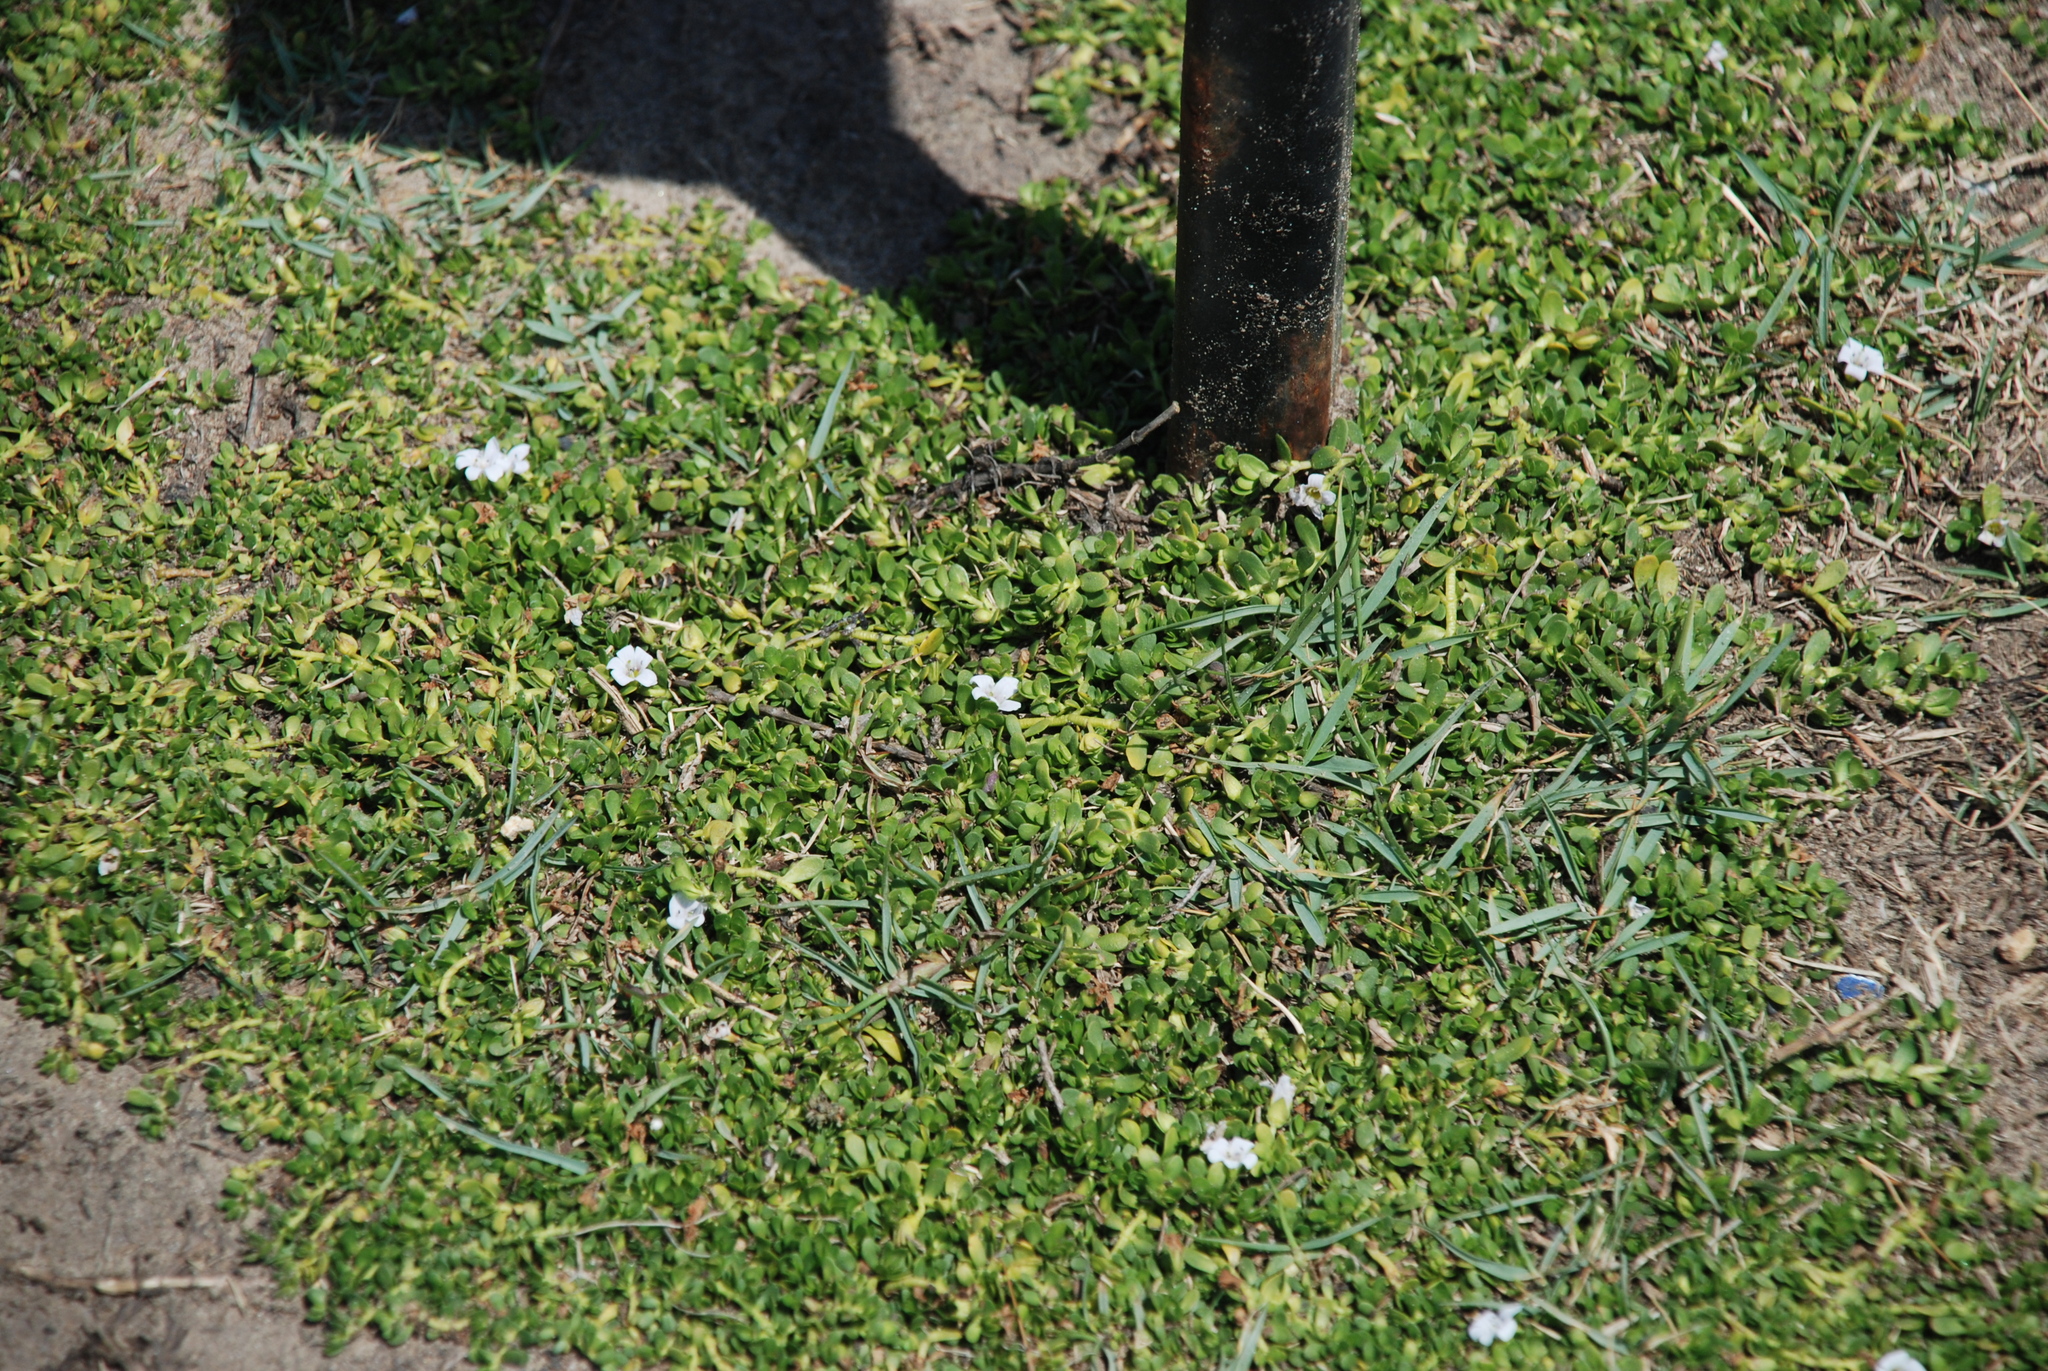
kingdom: Plantae
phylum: Tracheophyta
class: Magnoliopsida
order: Lamiales
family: Plantaginaceae
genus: Bacopa
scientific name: Bacopa monnieri
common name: Indian-pennywort
